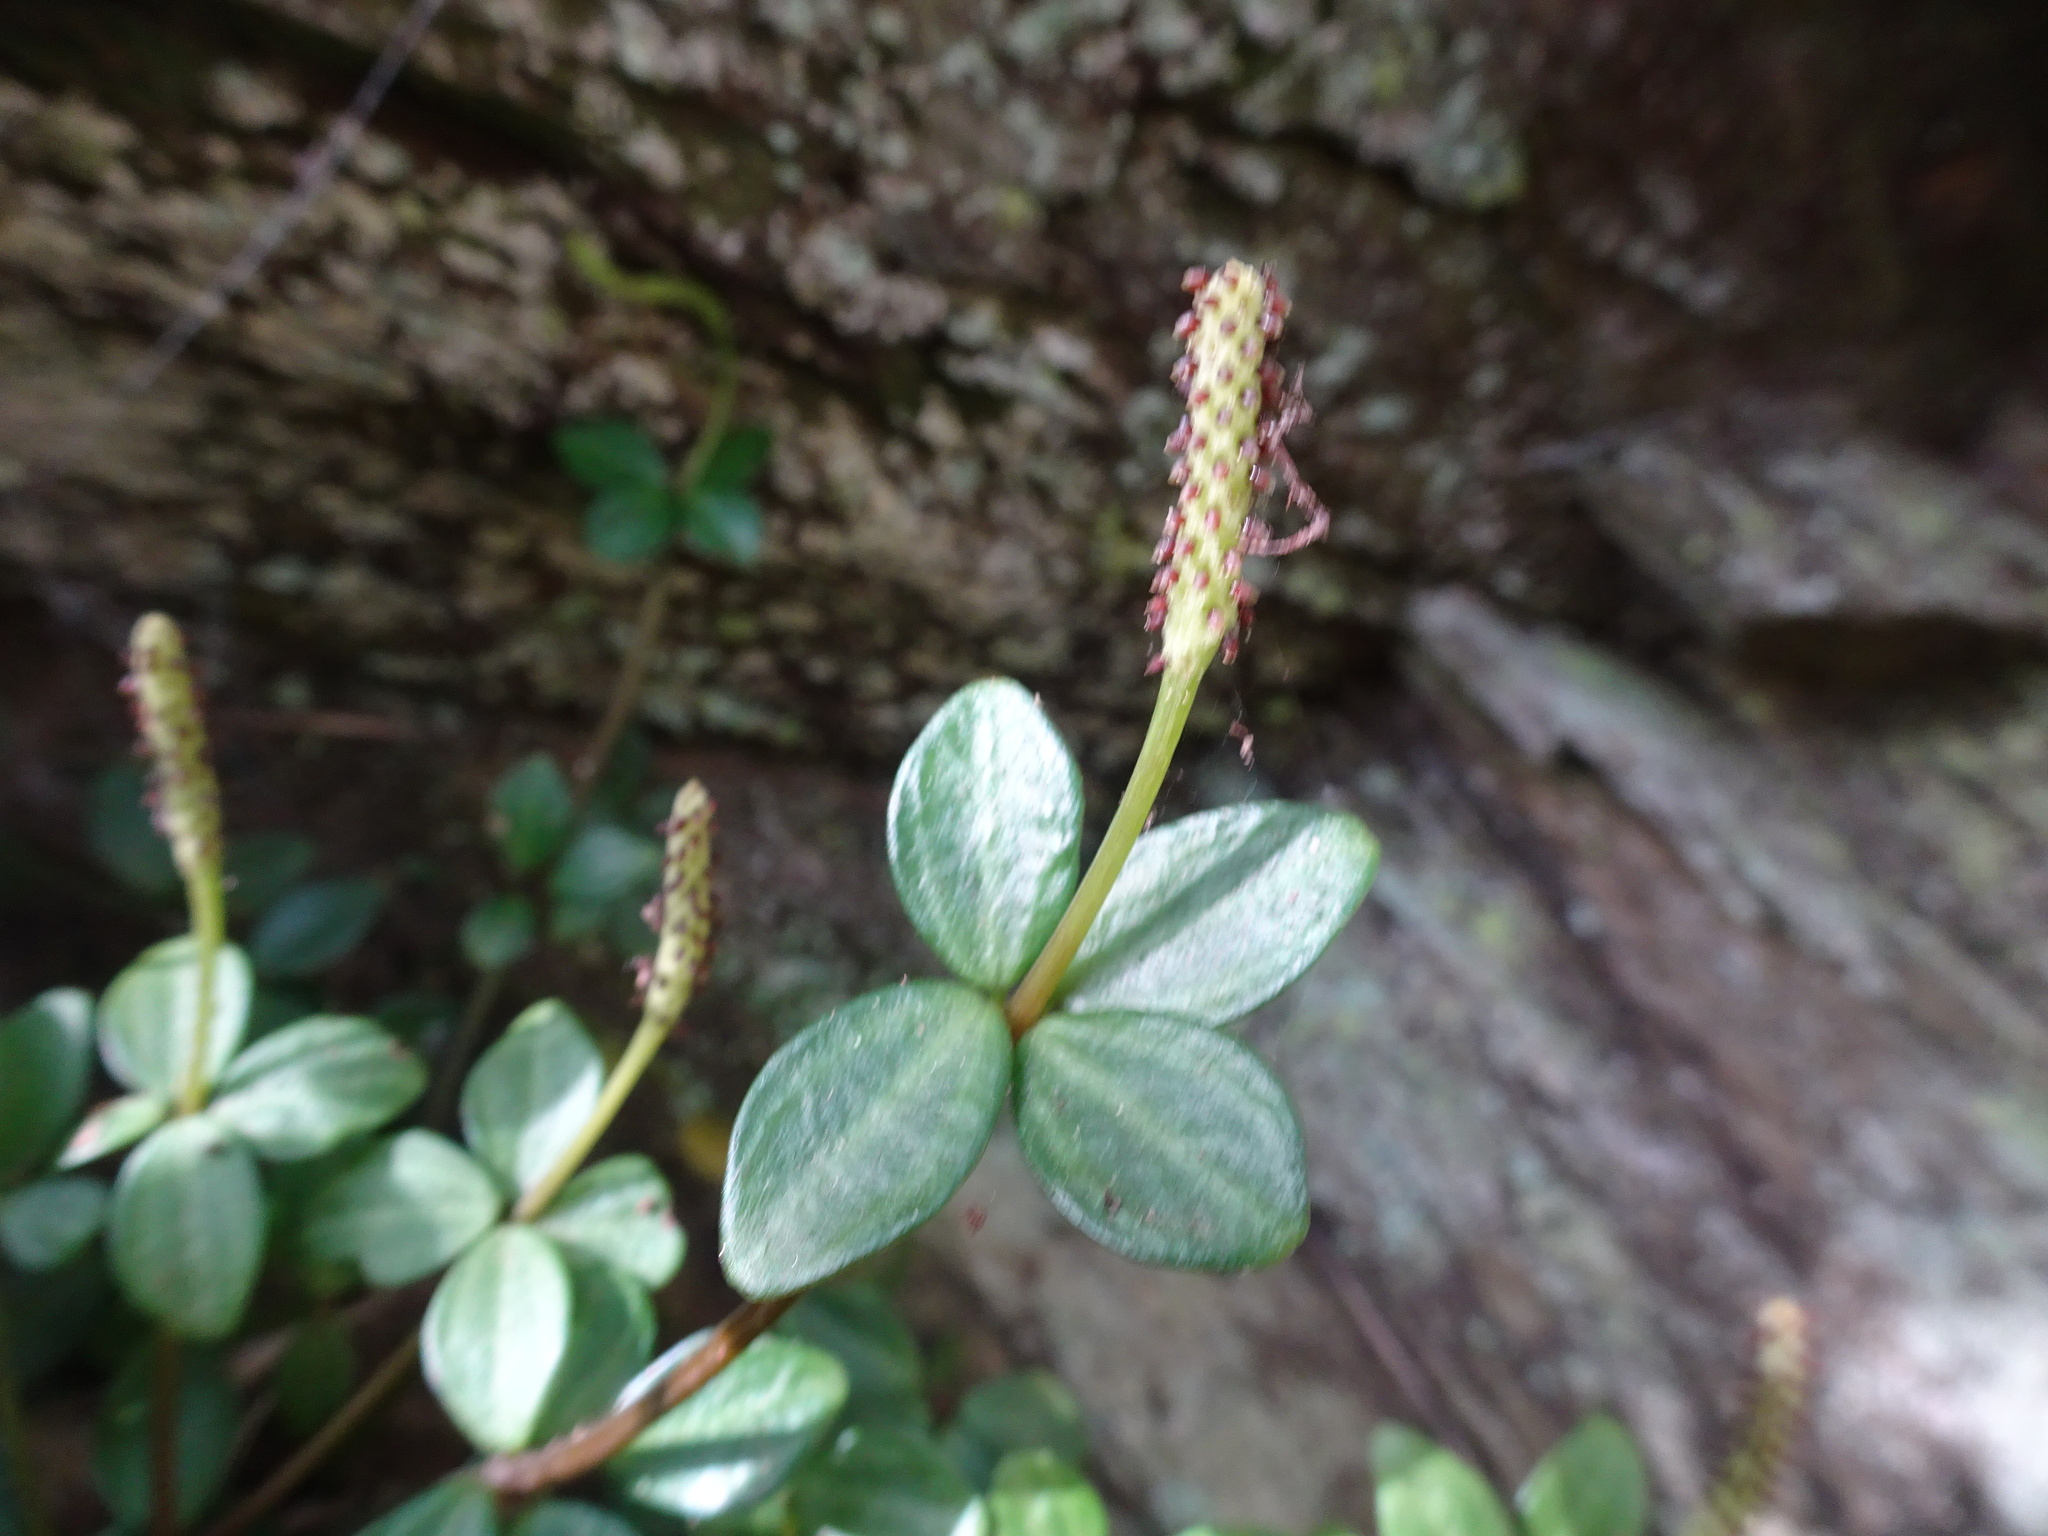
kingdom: Plantae
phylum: Tracheophyta
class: Magnoliopsida
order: Piperales
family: Piperaceae
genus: Peperomia
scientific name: Peperomia tetraphylla
